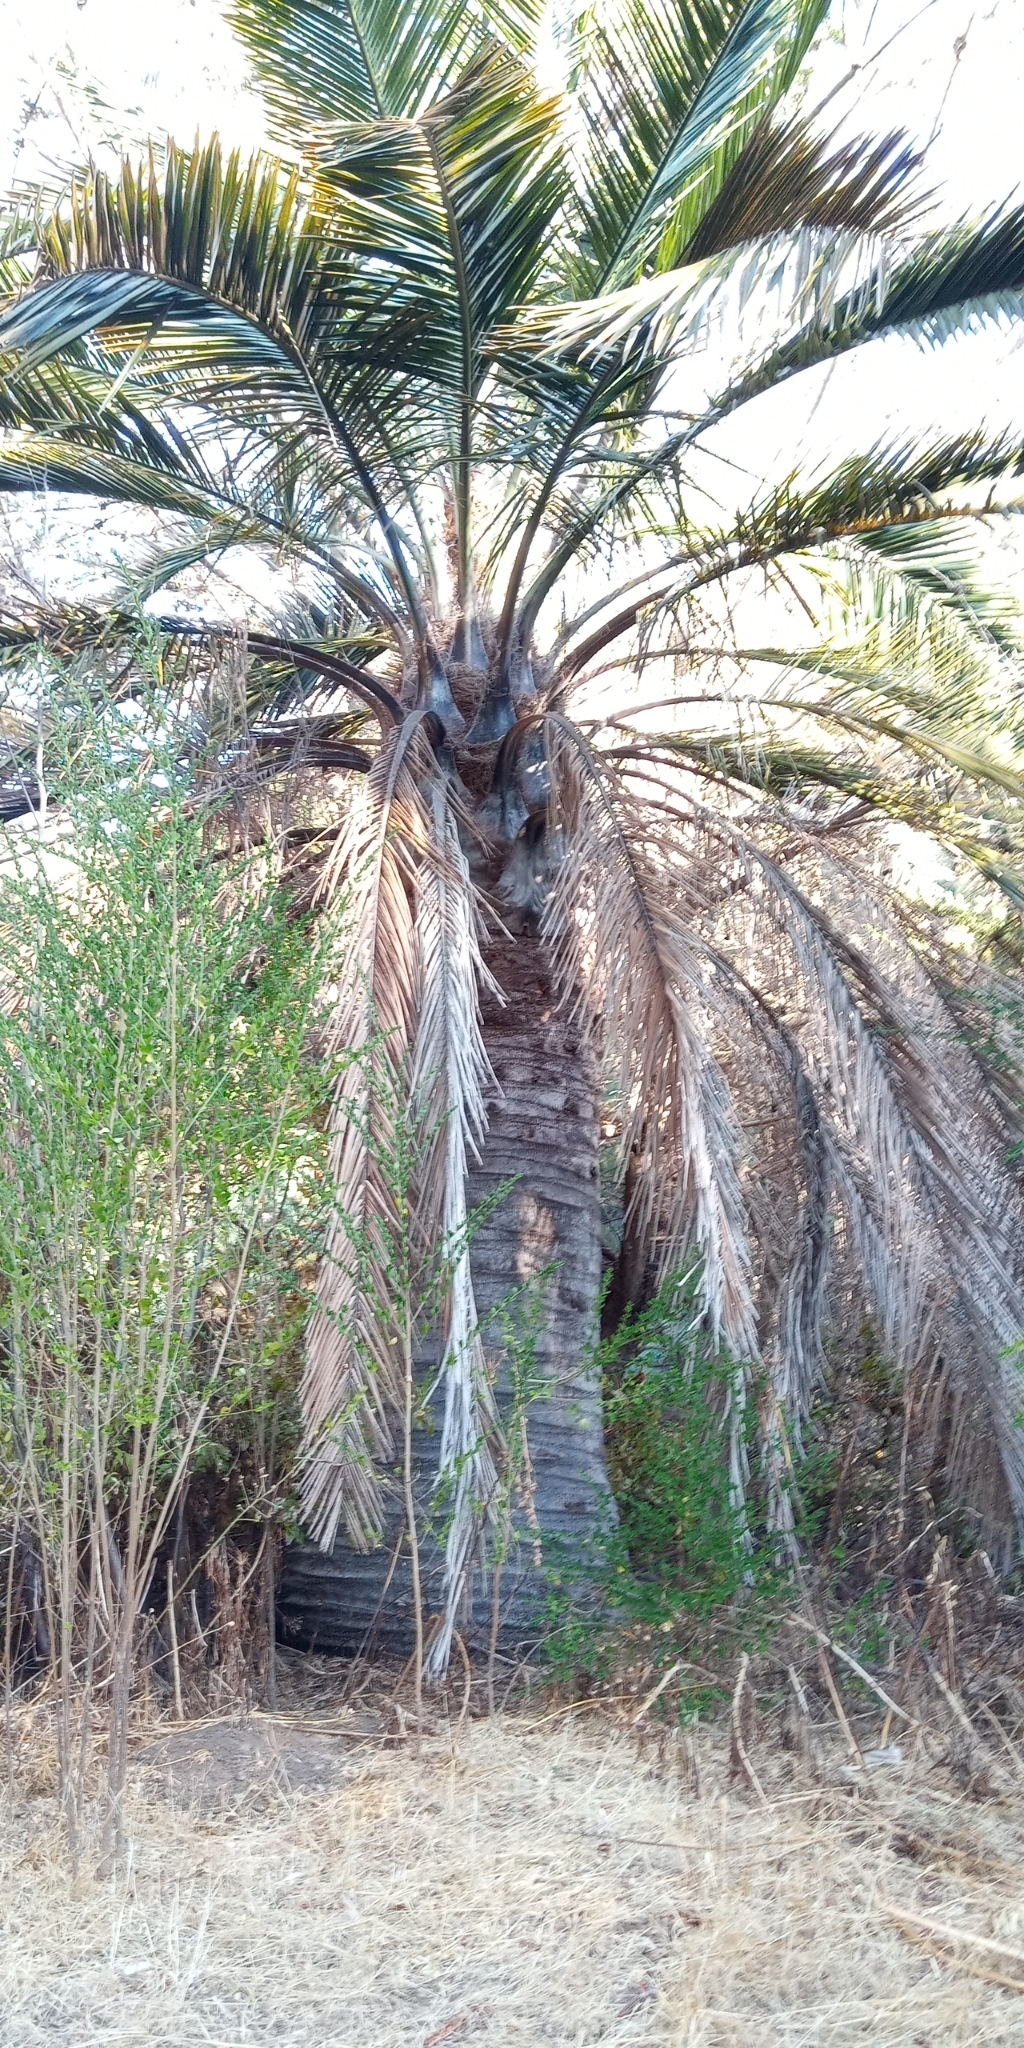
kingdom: Plantae
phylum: Tracheophyta
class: Liliopsida
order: Arecales
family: Arecaceae
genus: Jubaea
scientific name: Jubaea chilensis
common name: Coquito palm
